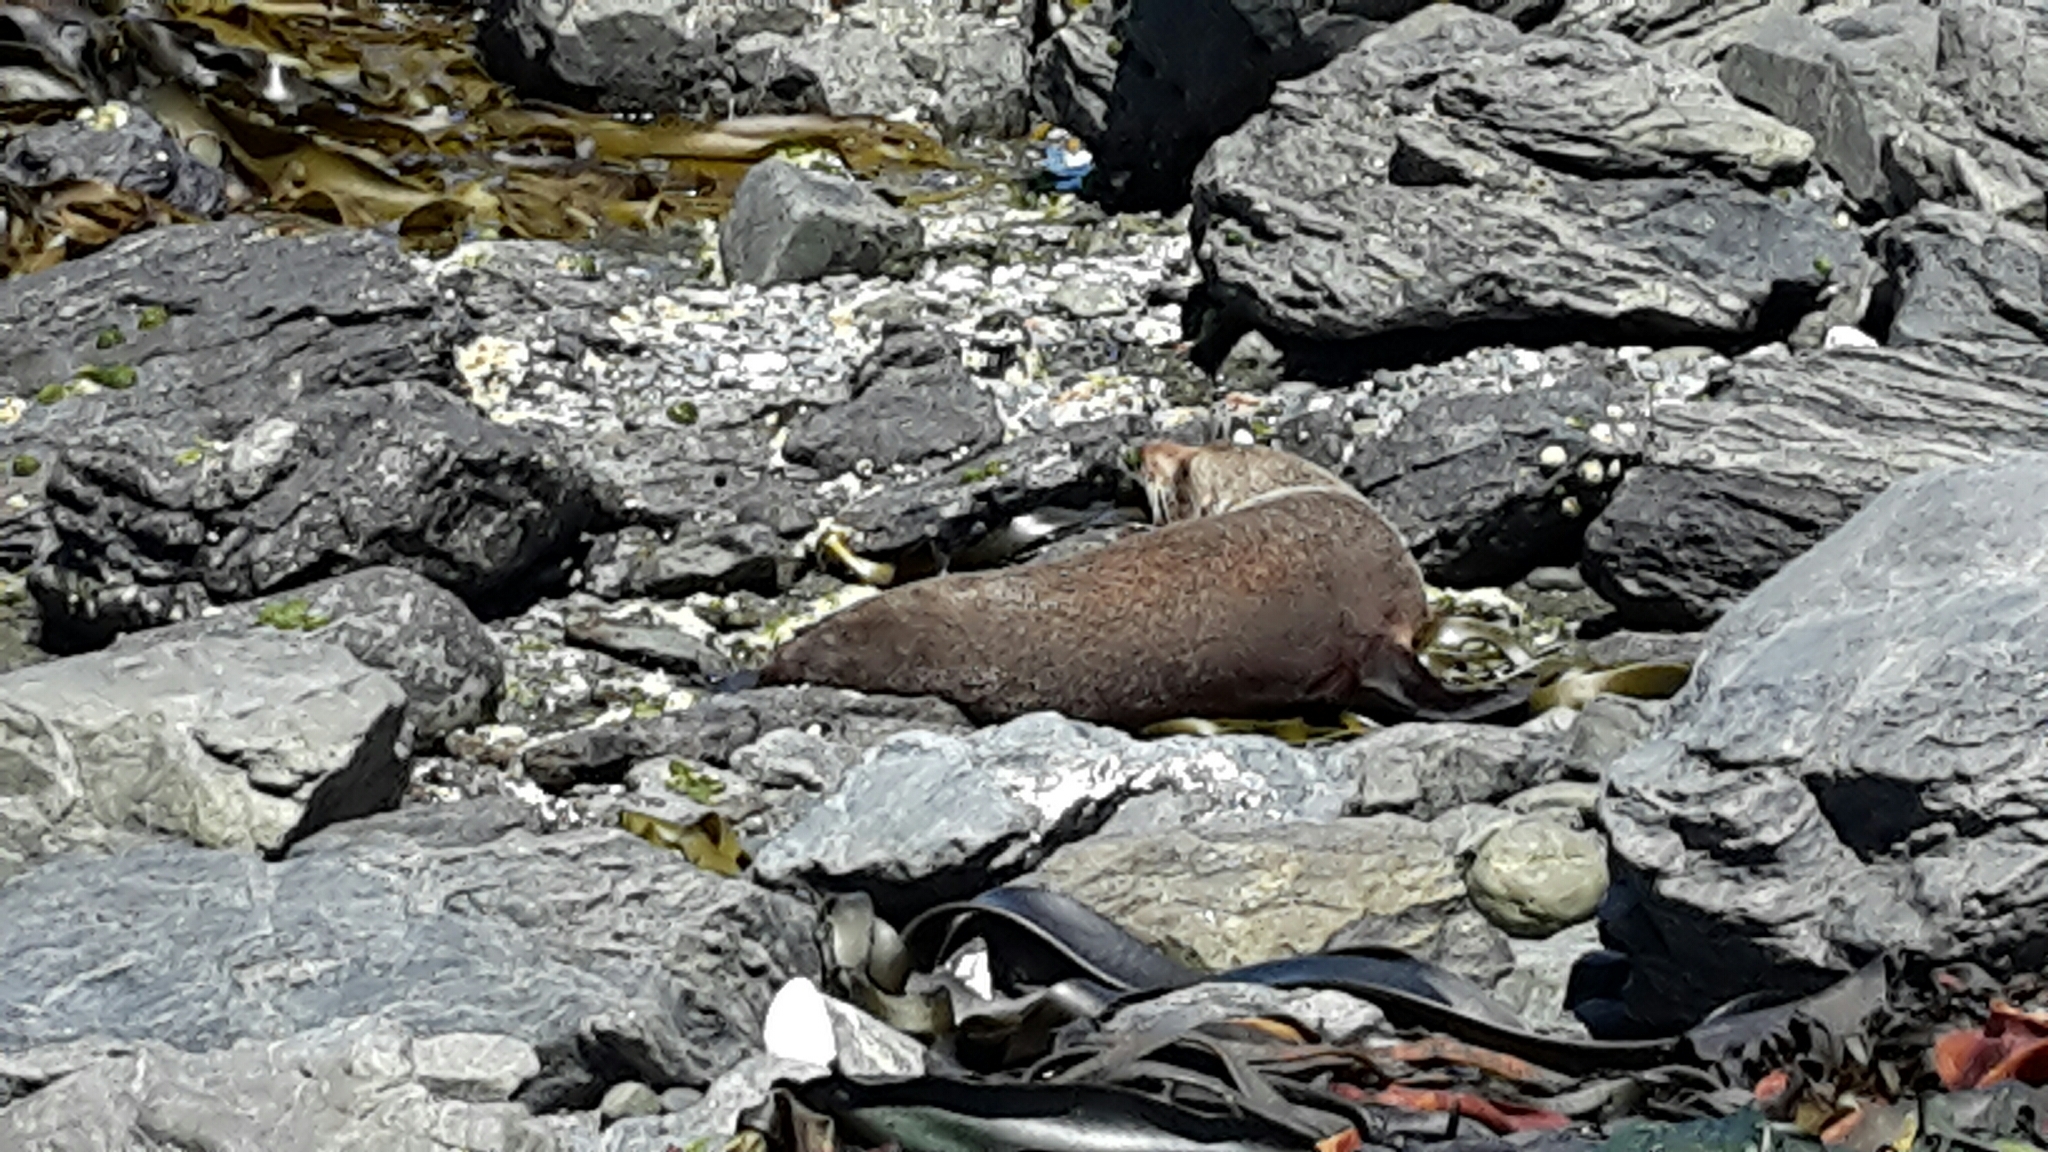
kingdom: Animalia
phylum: Chordata
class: Mammalia
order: Carnivora
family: Otariidae
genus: Arctocephalus
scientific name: Arctocephalus forsteri
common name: New zealand fur seal
